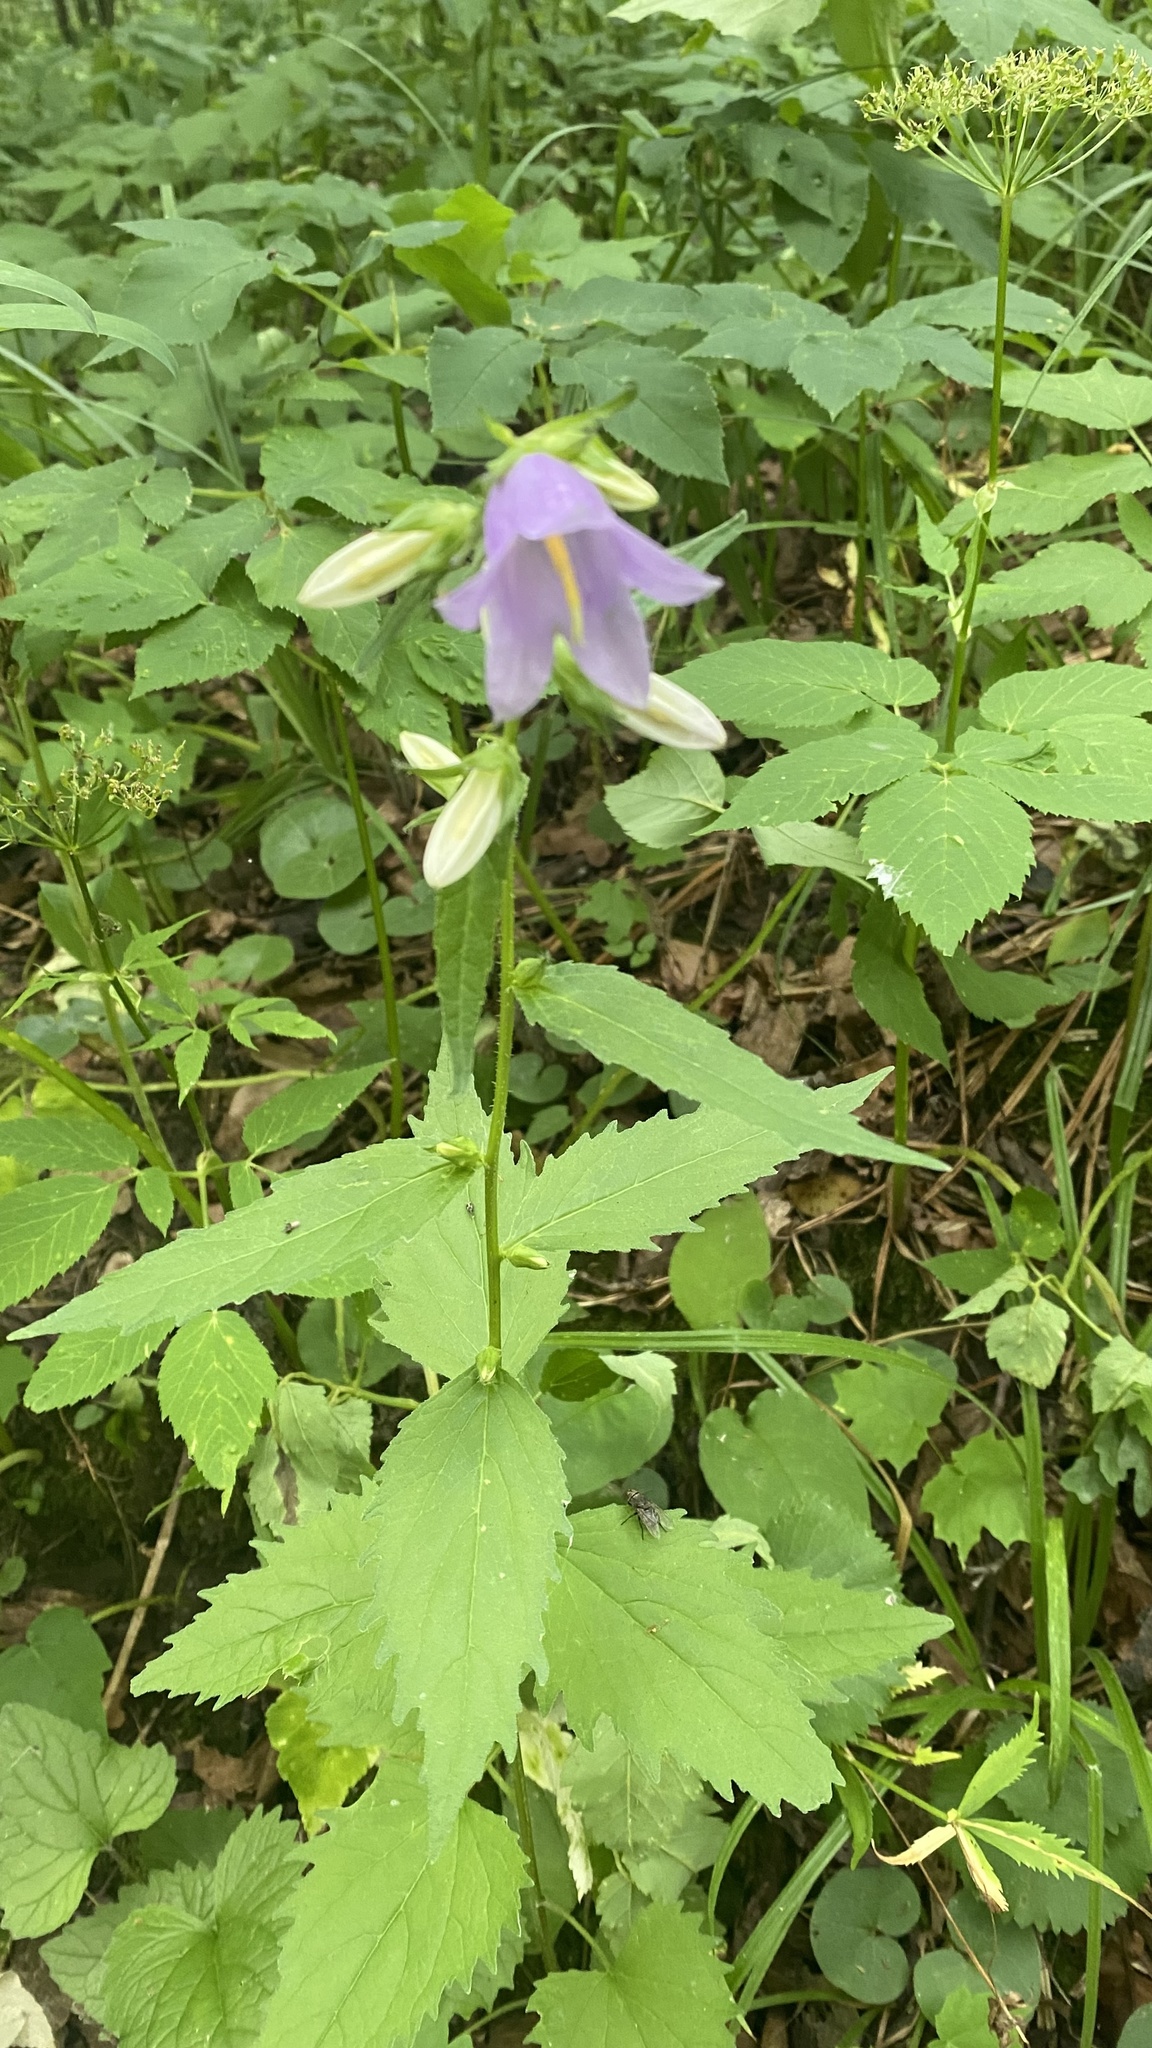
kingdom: Plantae
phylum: Tracheophyta
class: Magnoliopsida
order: Asterales
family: Campanulaceae
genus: Campanula
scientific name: Campanula trachelium
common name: Nettle-leaved bellflower
